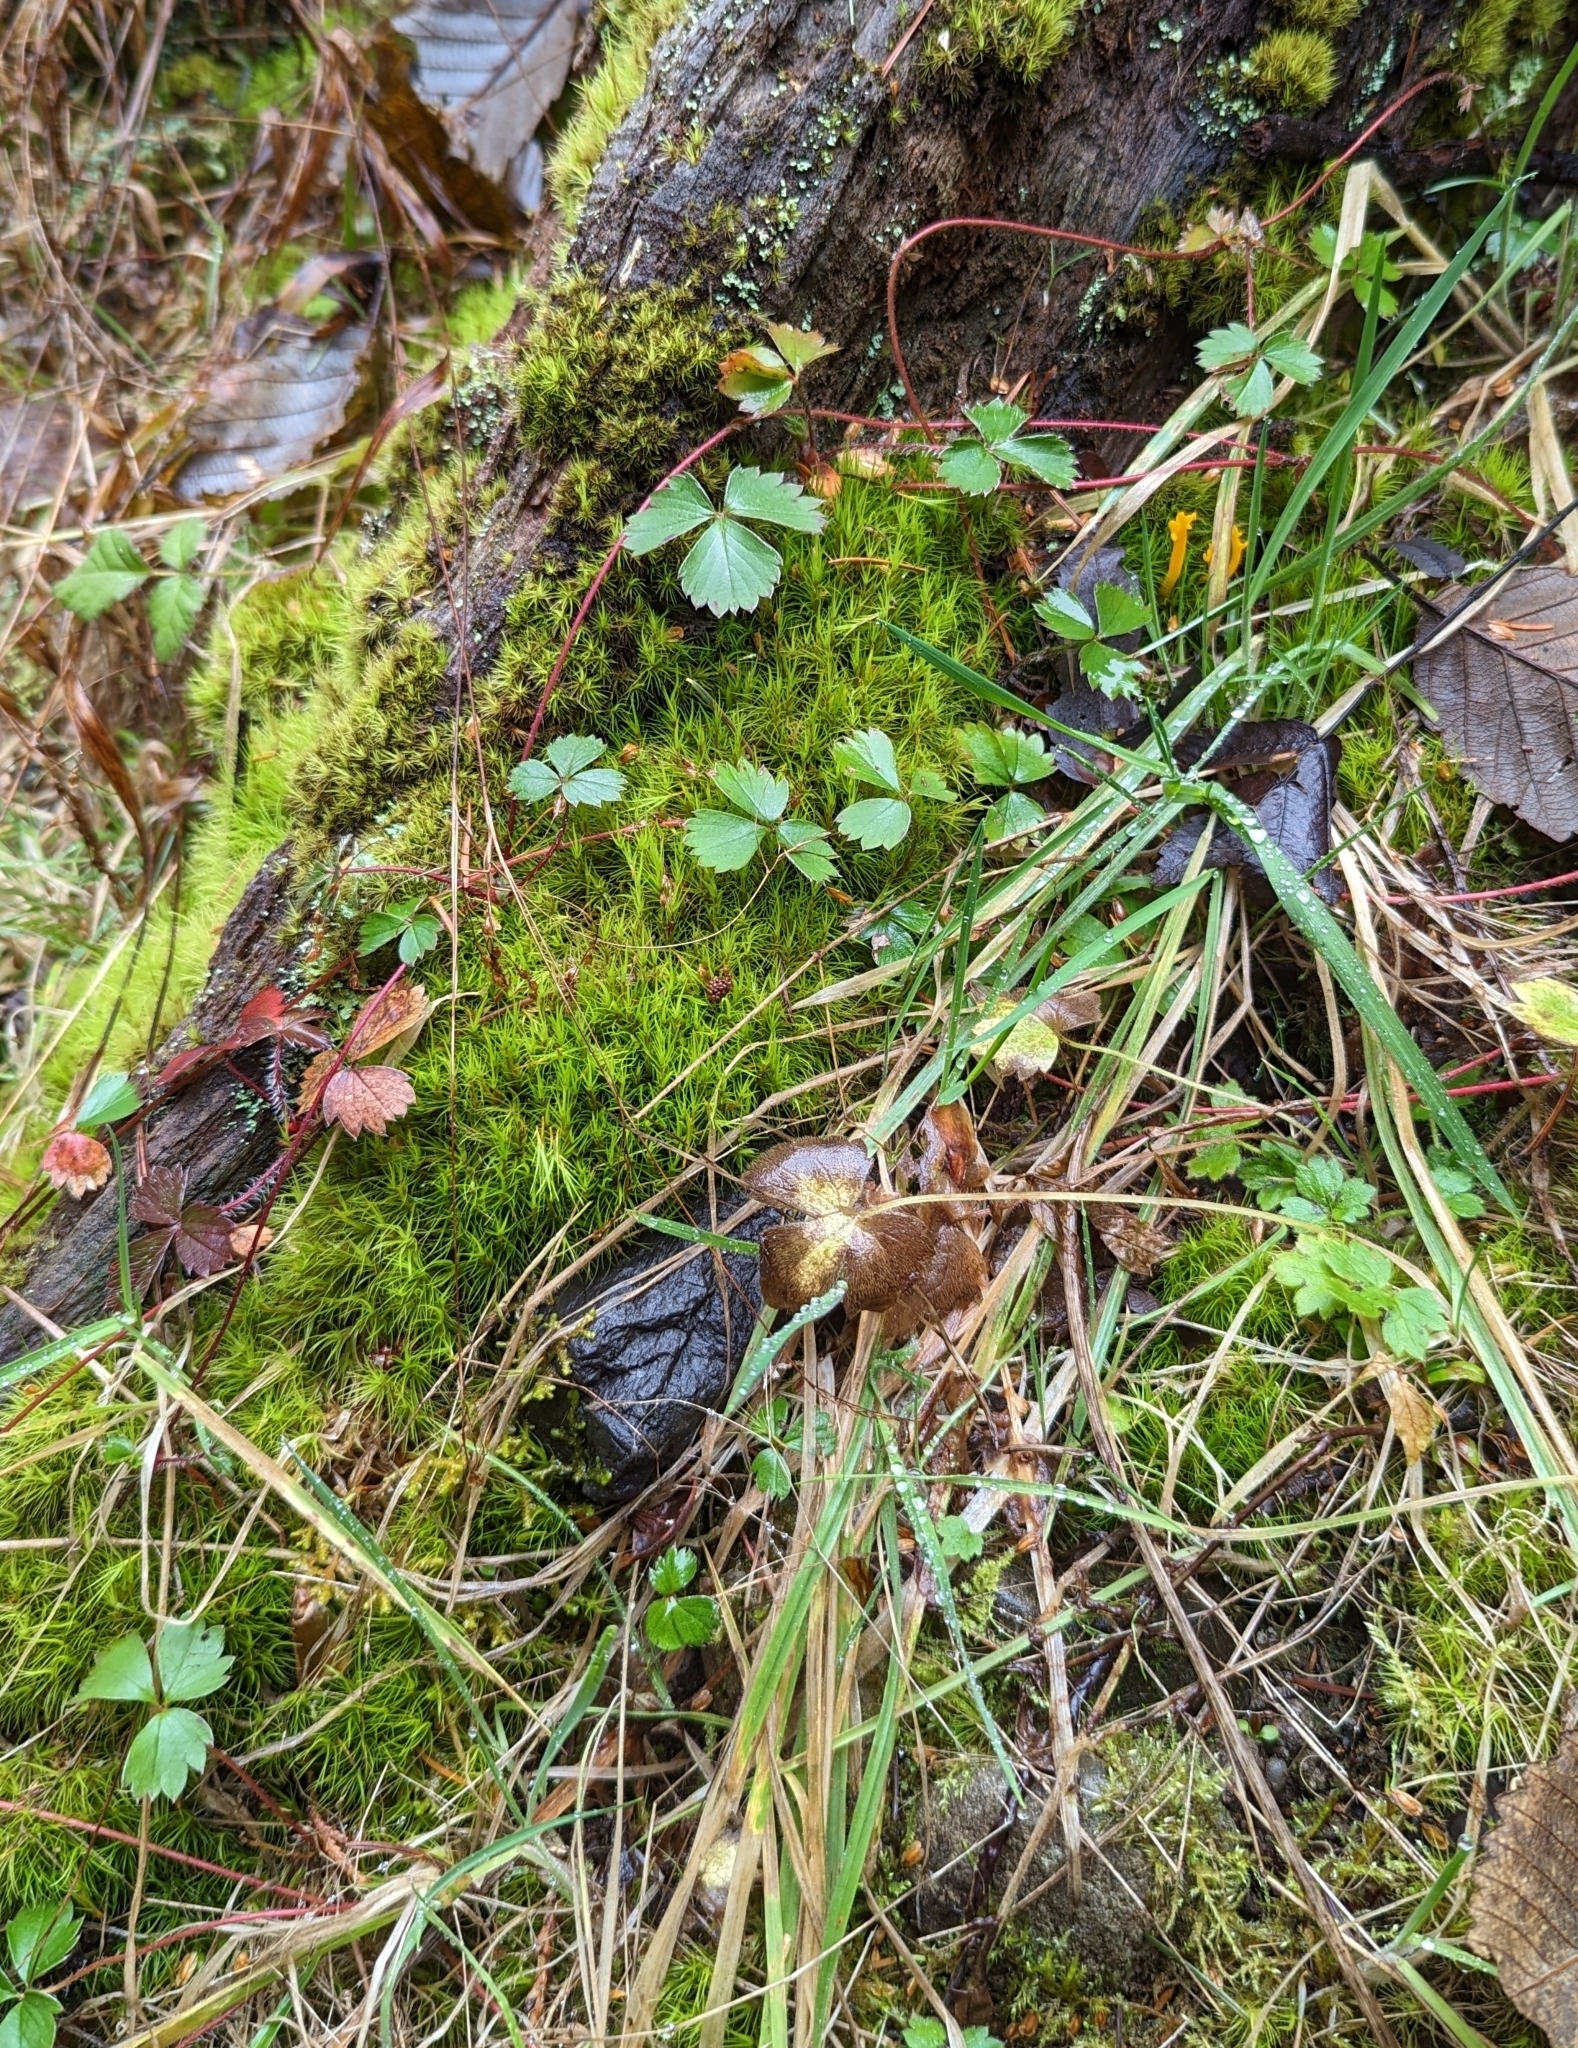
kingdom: Plantae
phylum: Tracheophyta
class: Magnoliopsida
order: Rosales
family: Rosaceae
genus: Fragaria
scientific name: Fragaria virginiana
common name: Thickleaved wild strawberry
